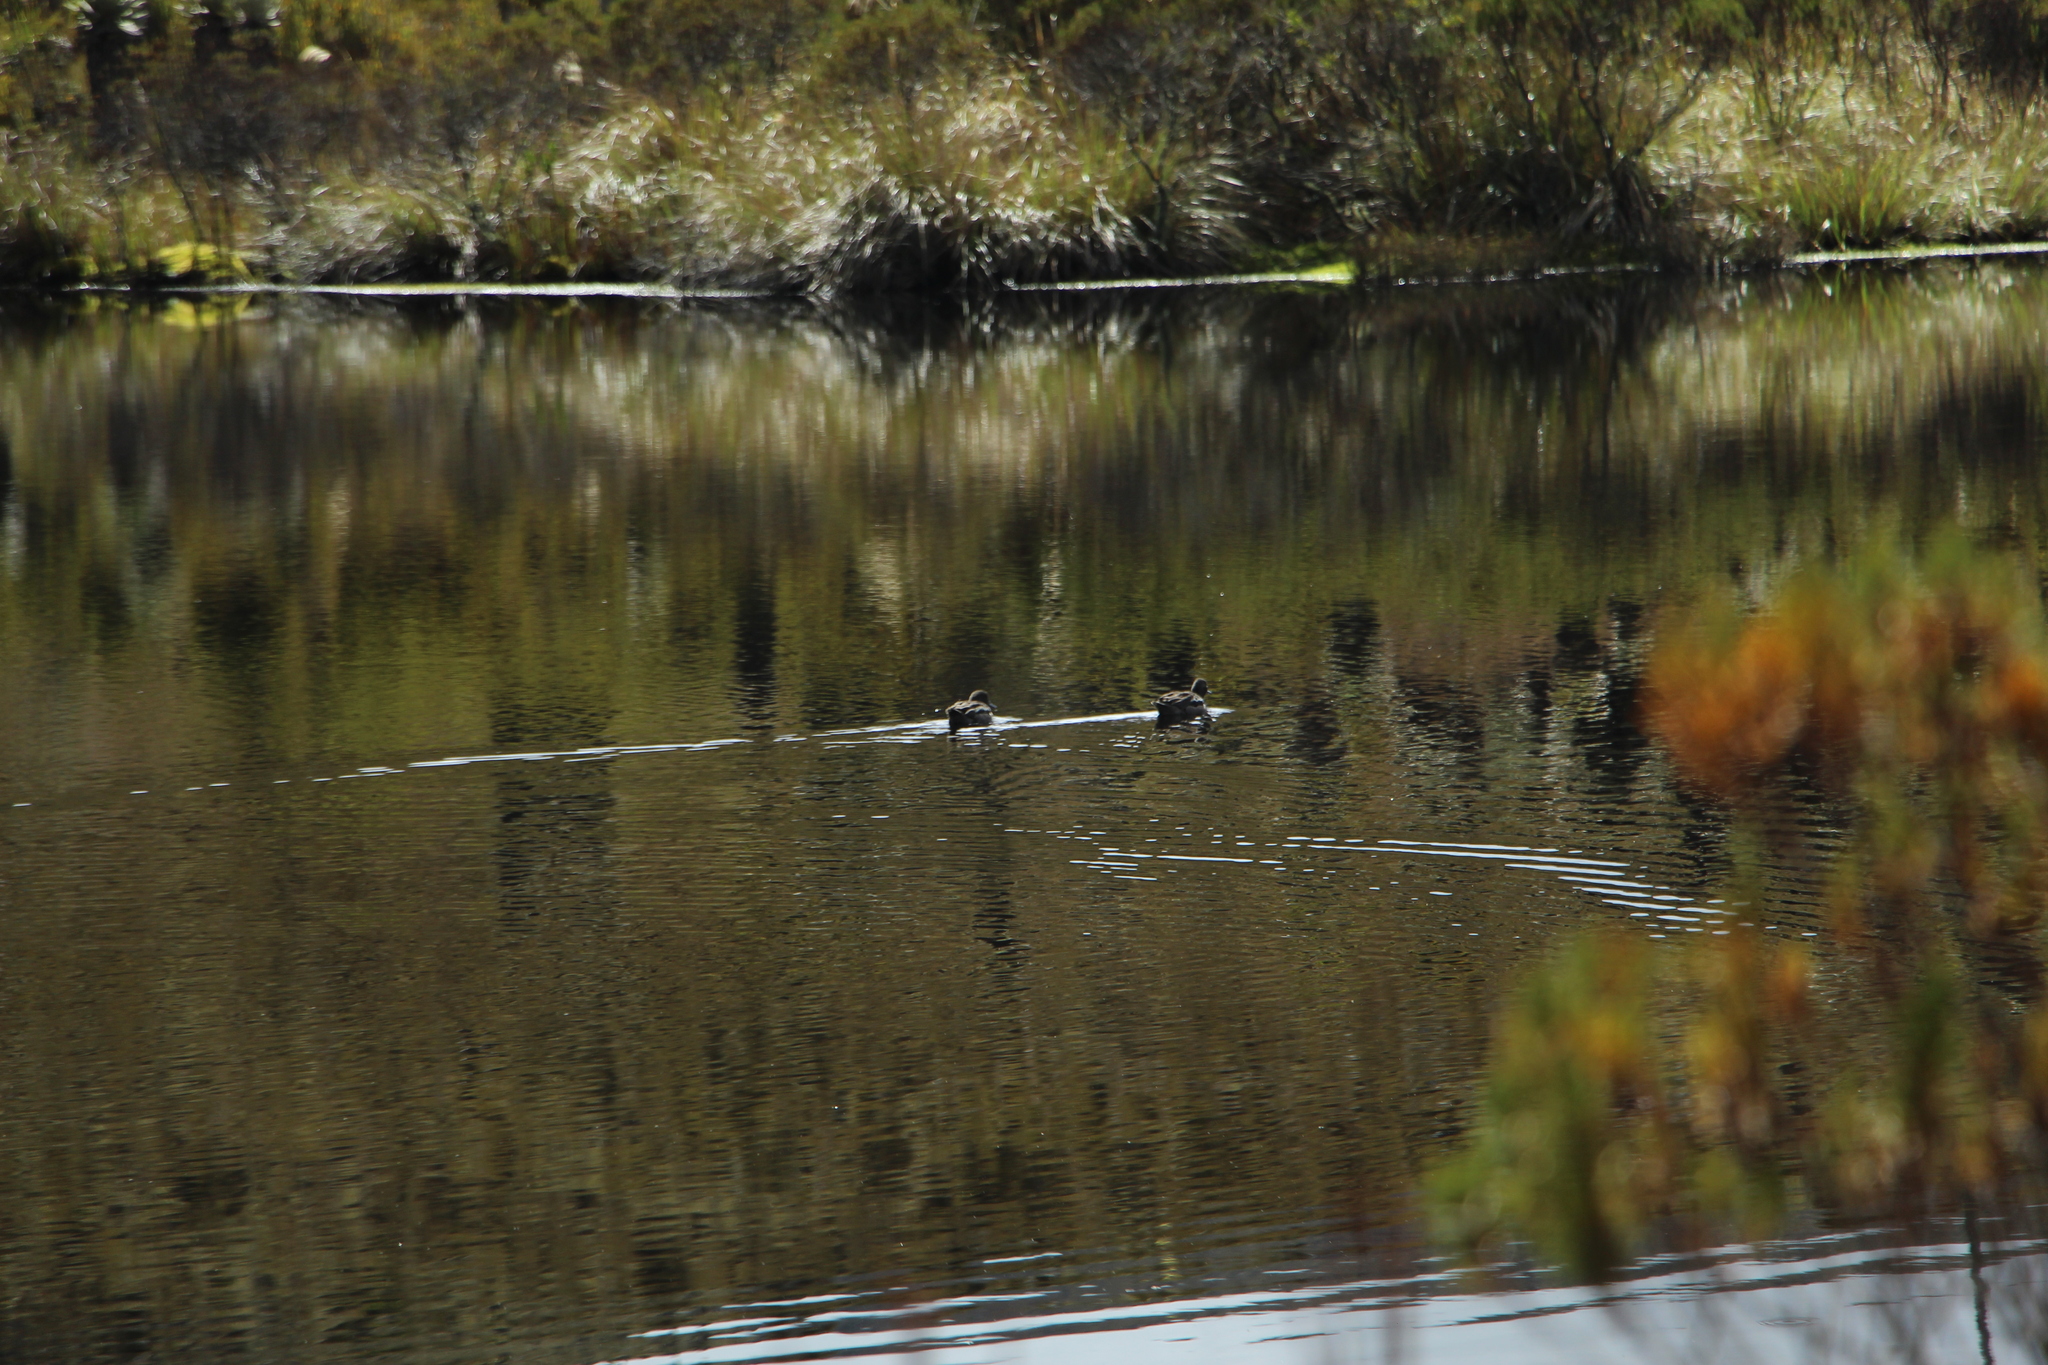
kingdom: Animalia
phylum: Chordata
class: Aves
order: Anseriformes
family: Anatidae
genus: Anas
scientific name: Anas andium
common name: Andean teal
